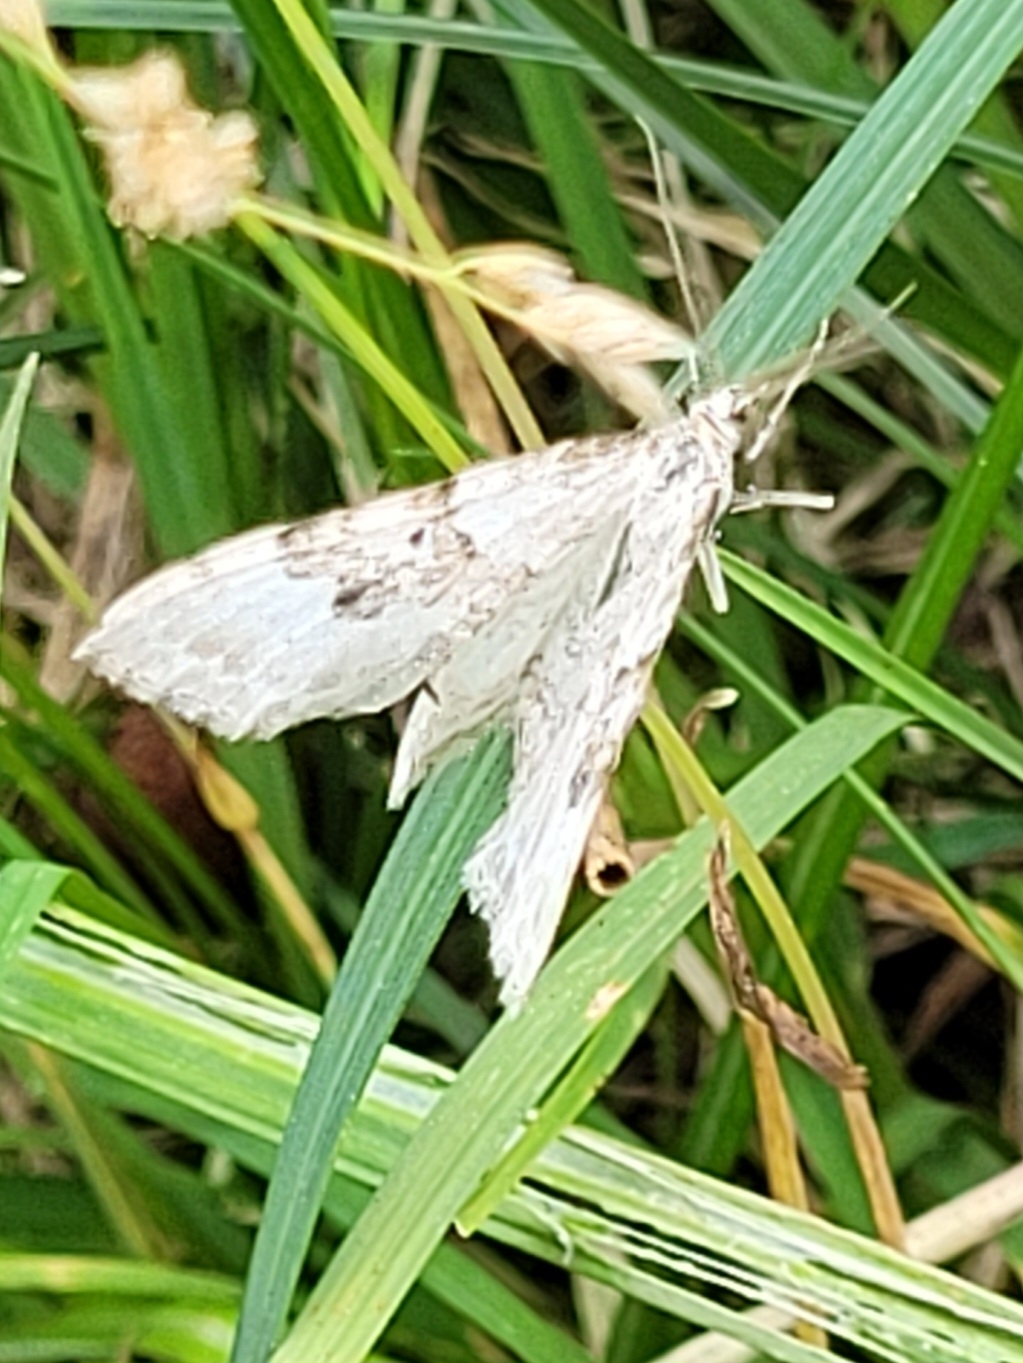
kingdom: Animalia
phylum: Arthropoda
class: Insecta
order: Lepidoptera
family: Geometridae
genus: Xanthorhoe
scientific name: Xanthorhoe montanata
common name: Silver-ground carpet
